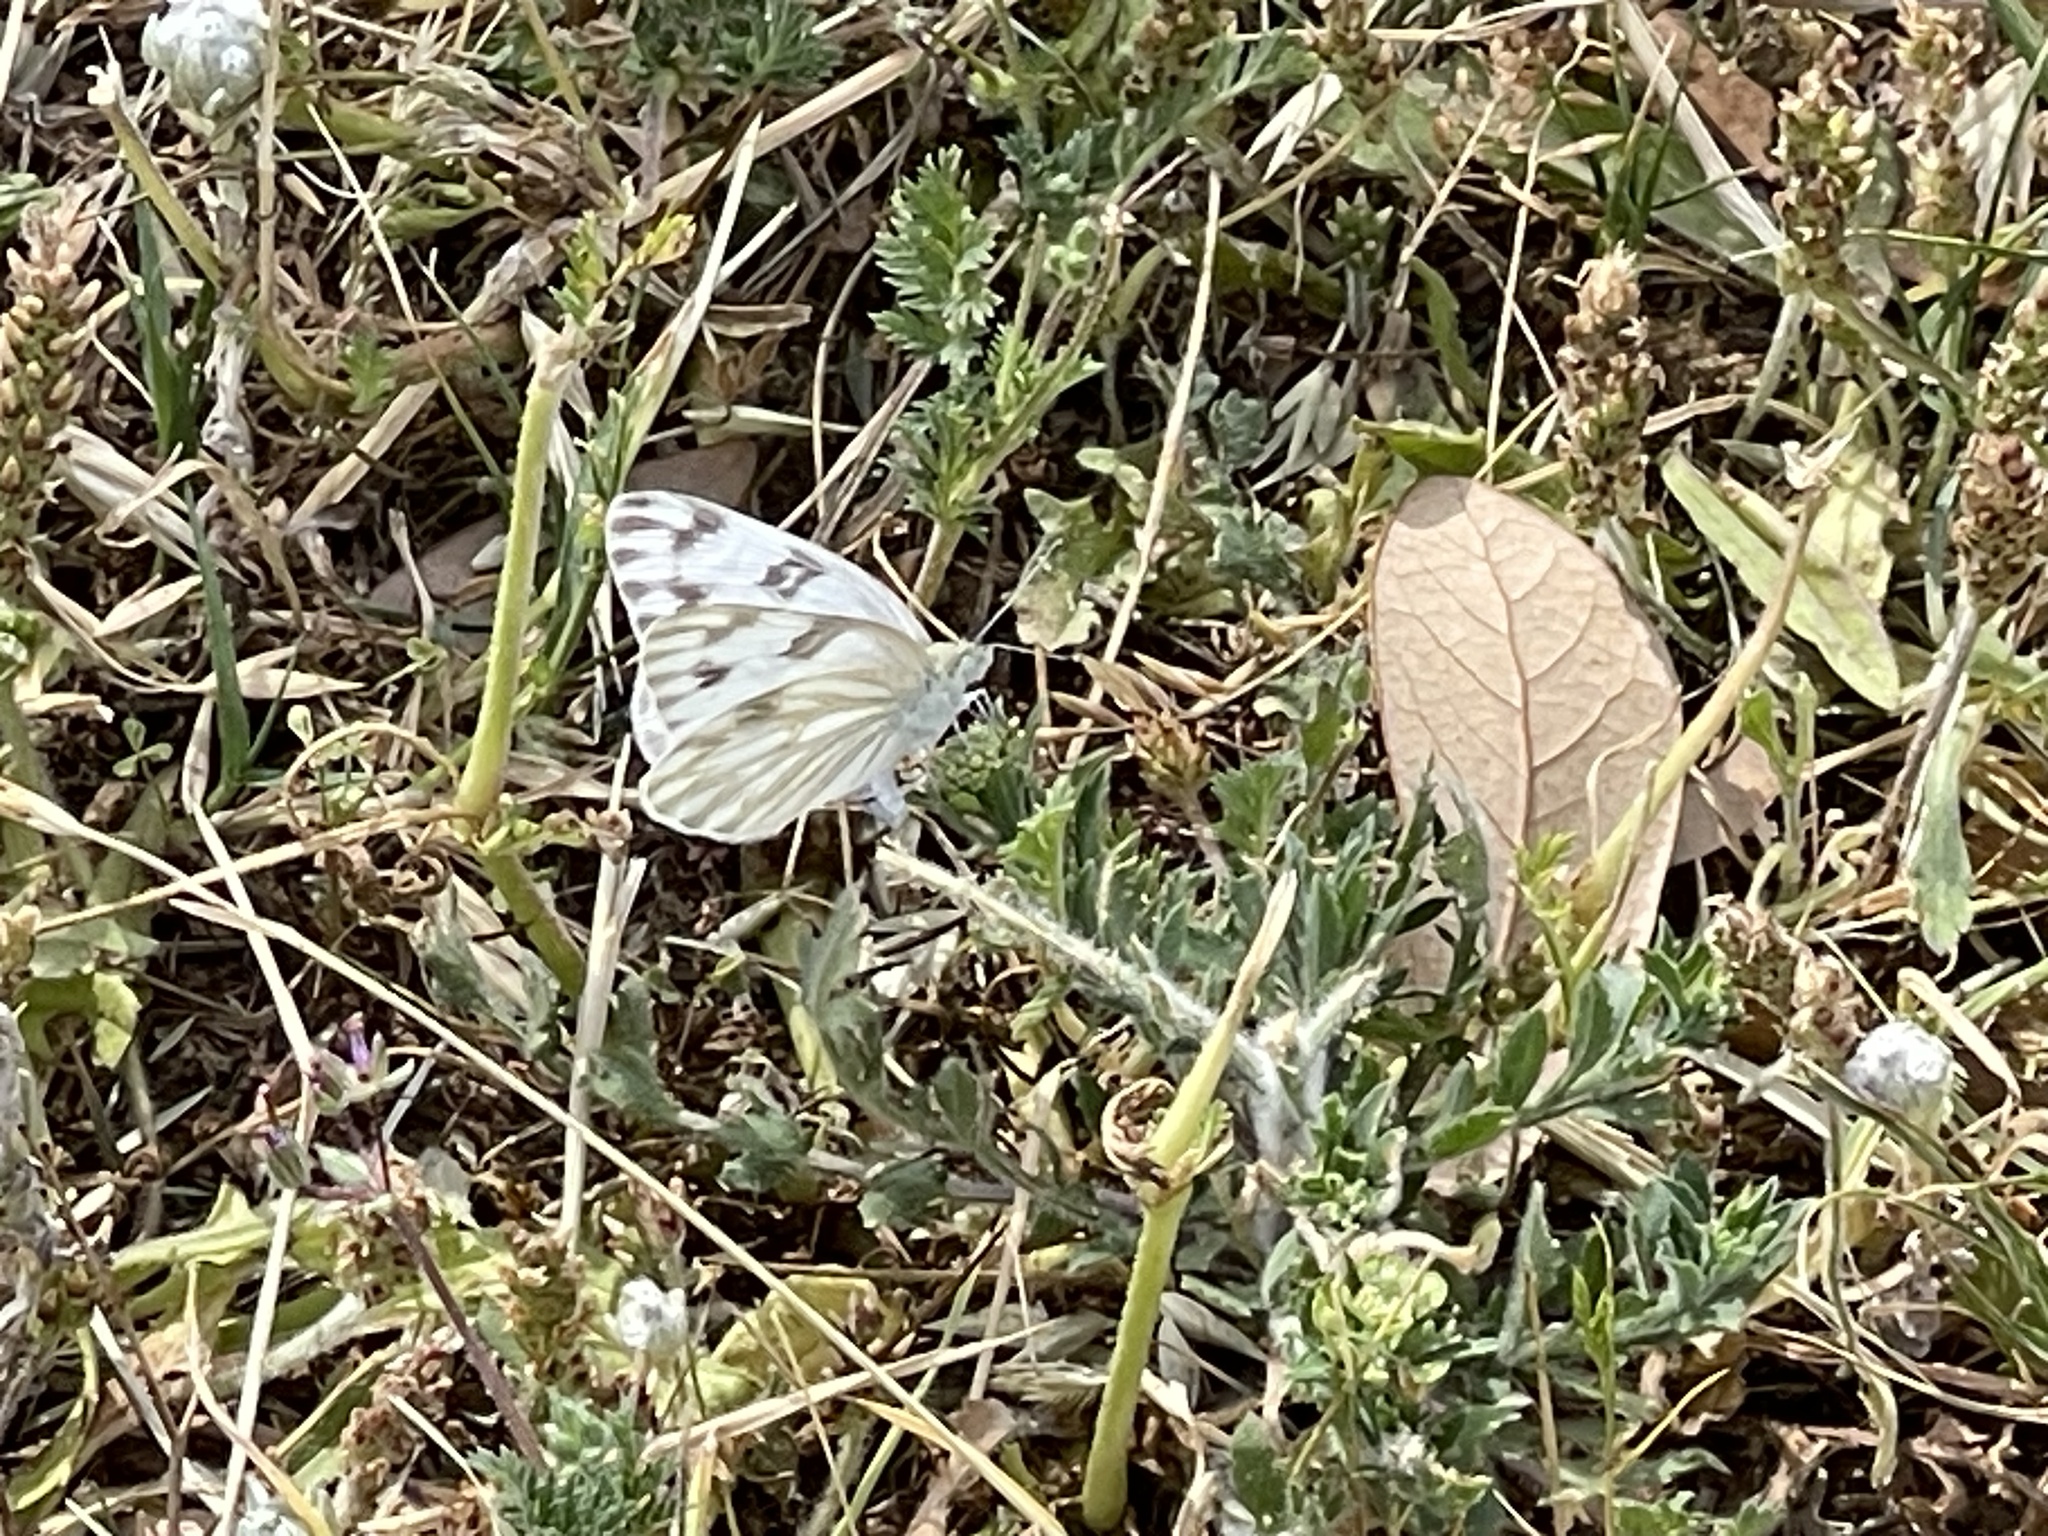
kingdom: Animalia
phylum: Arthropoda
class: Insecta
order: Lepidoptera
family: Pieridae
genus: Pontia
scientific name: Pontia protodice
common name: Checkered white
